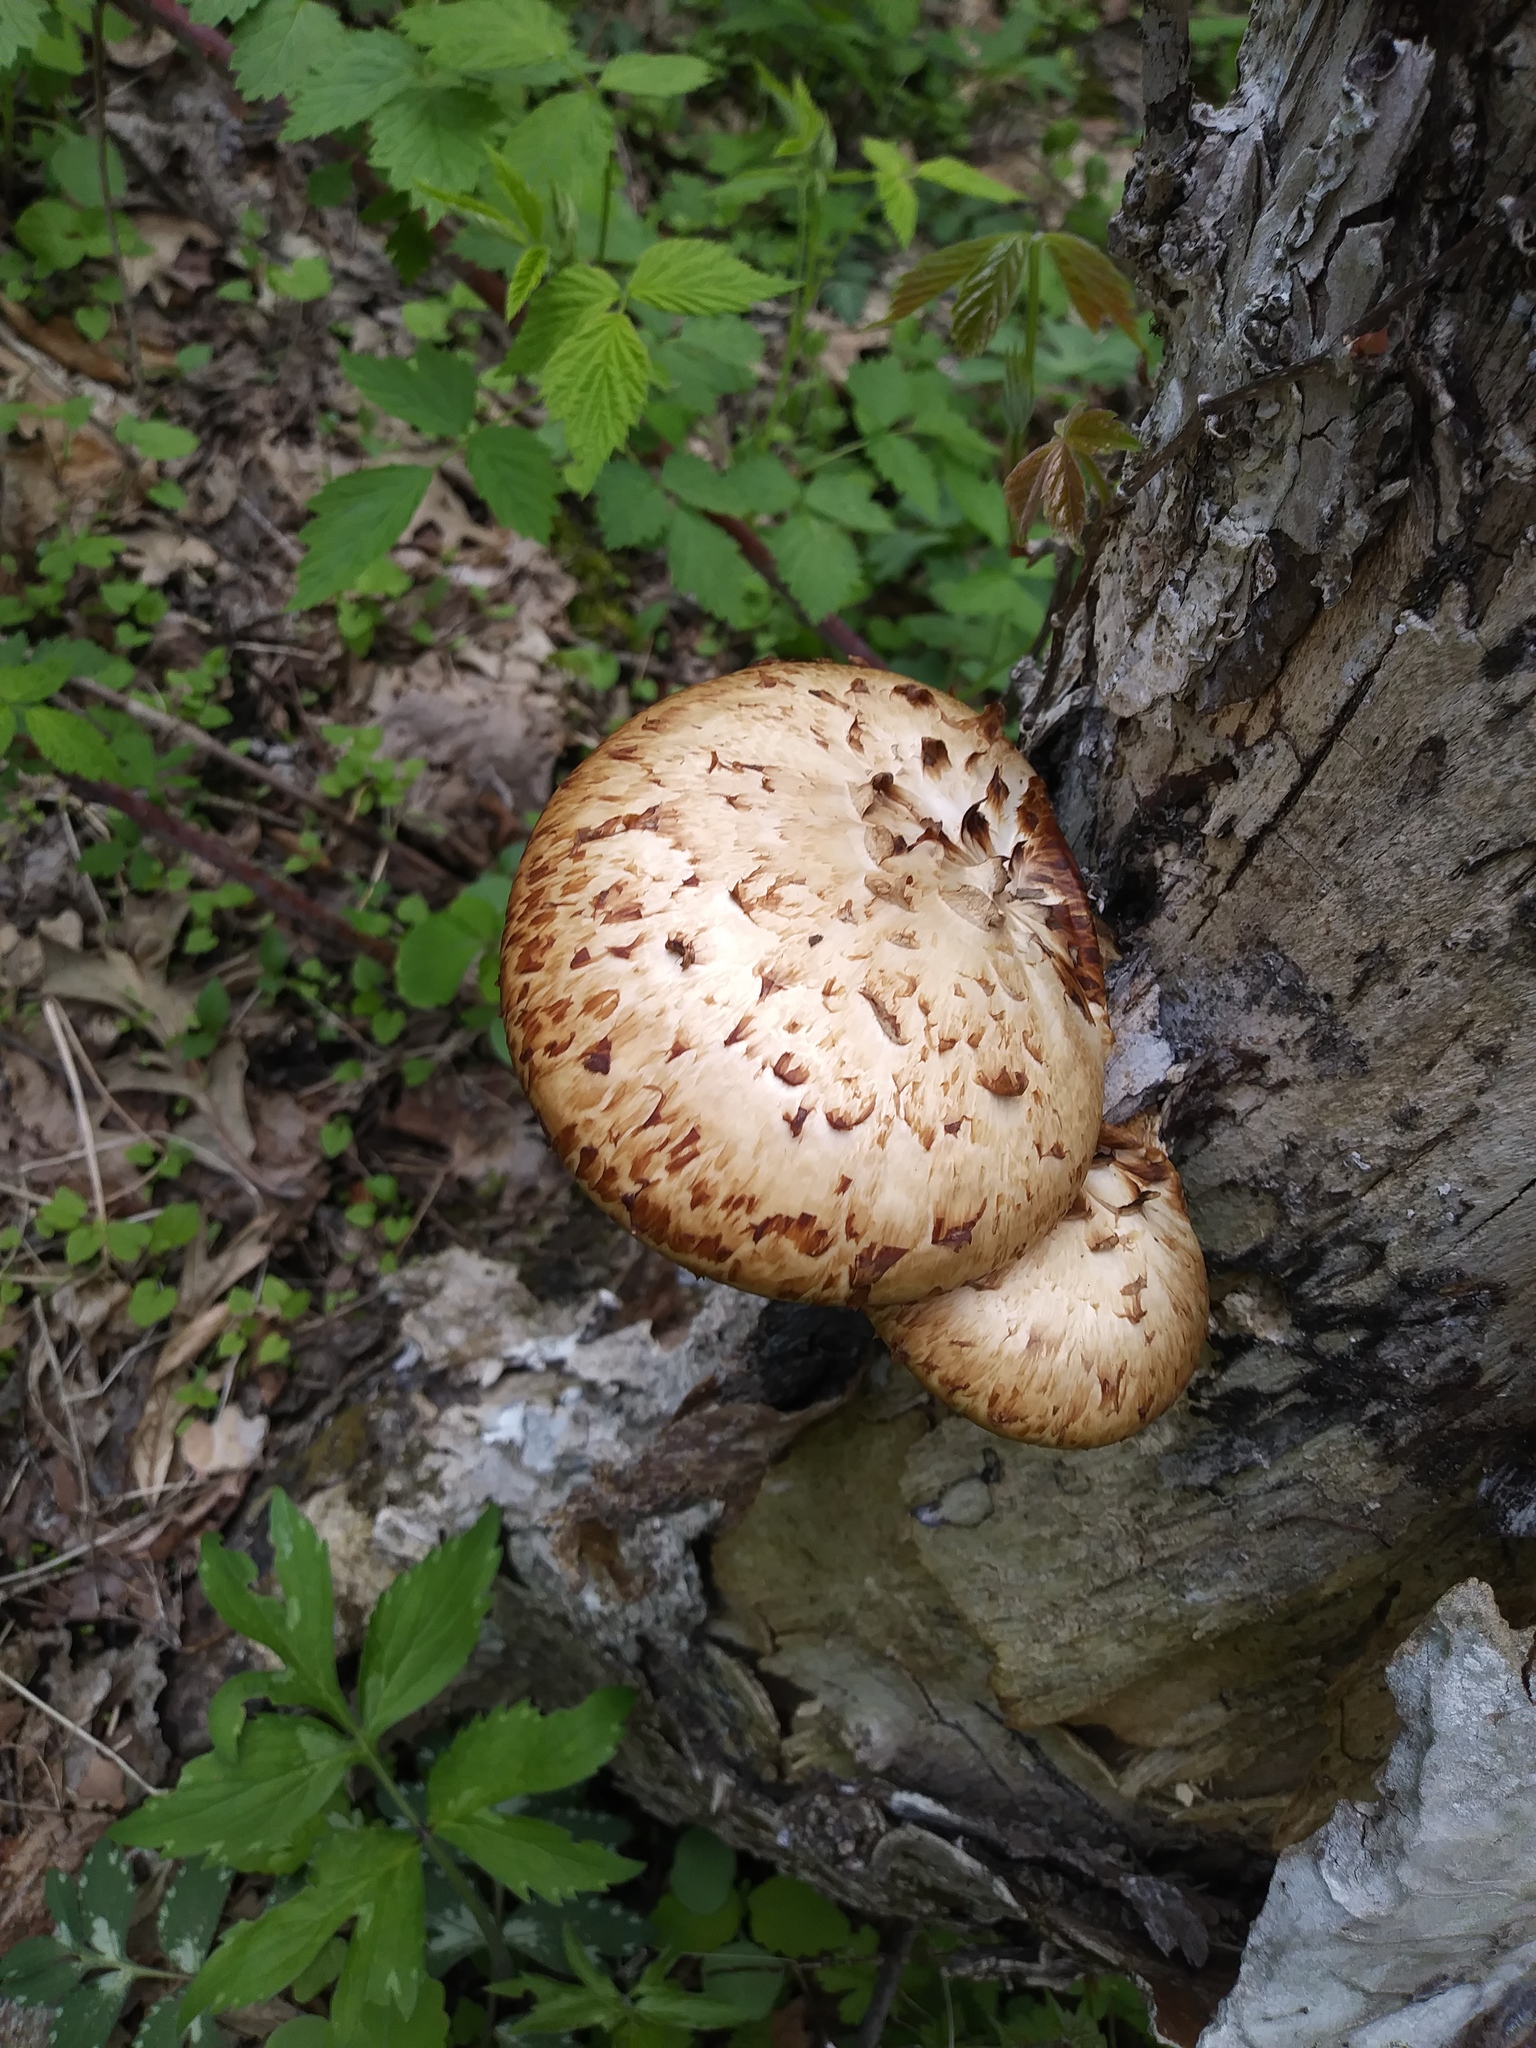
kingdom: Fungi
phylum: Basidiomycota
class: Agaricomycetes
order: Polyporales
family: Polyporaceae
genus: Cerioporus
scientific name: Cerioporus squamosus
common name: Dryad's saddle
